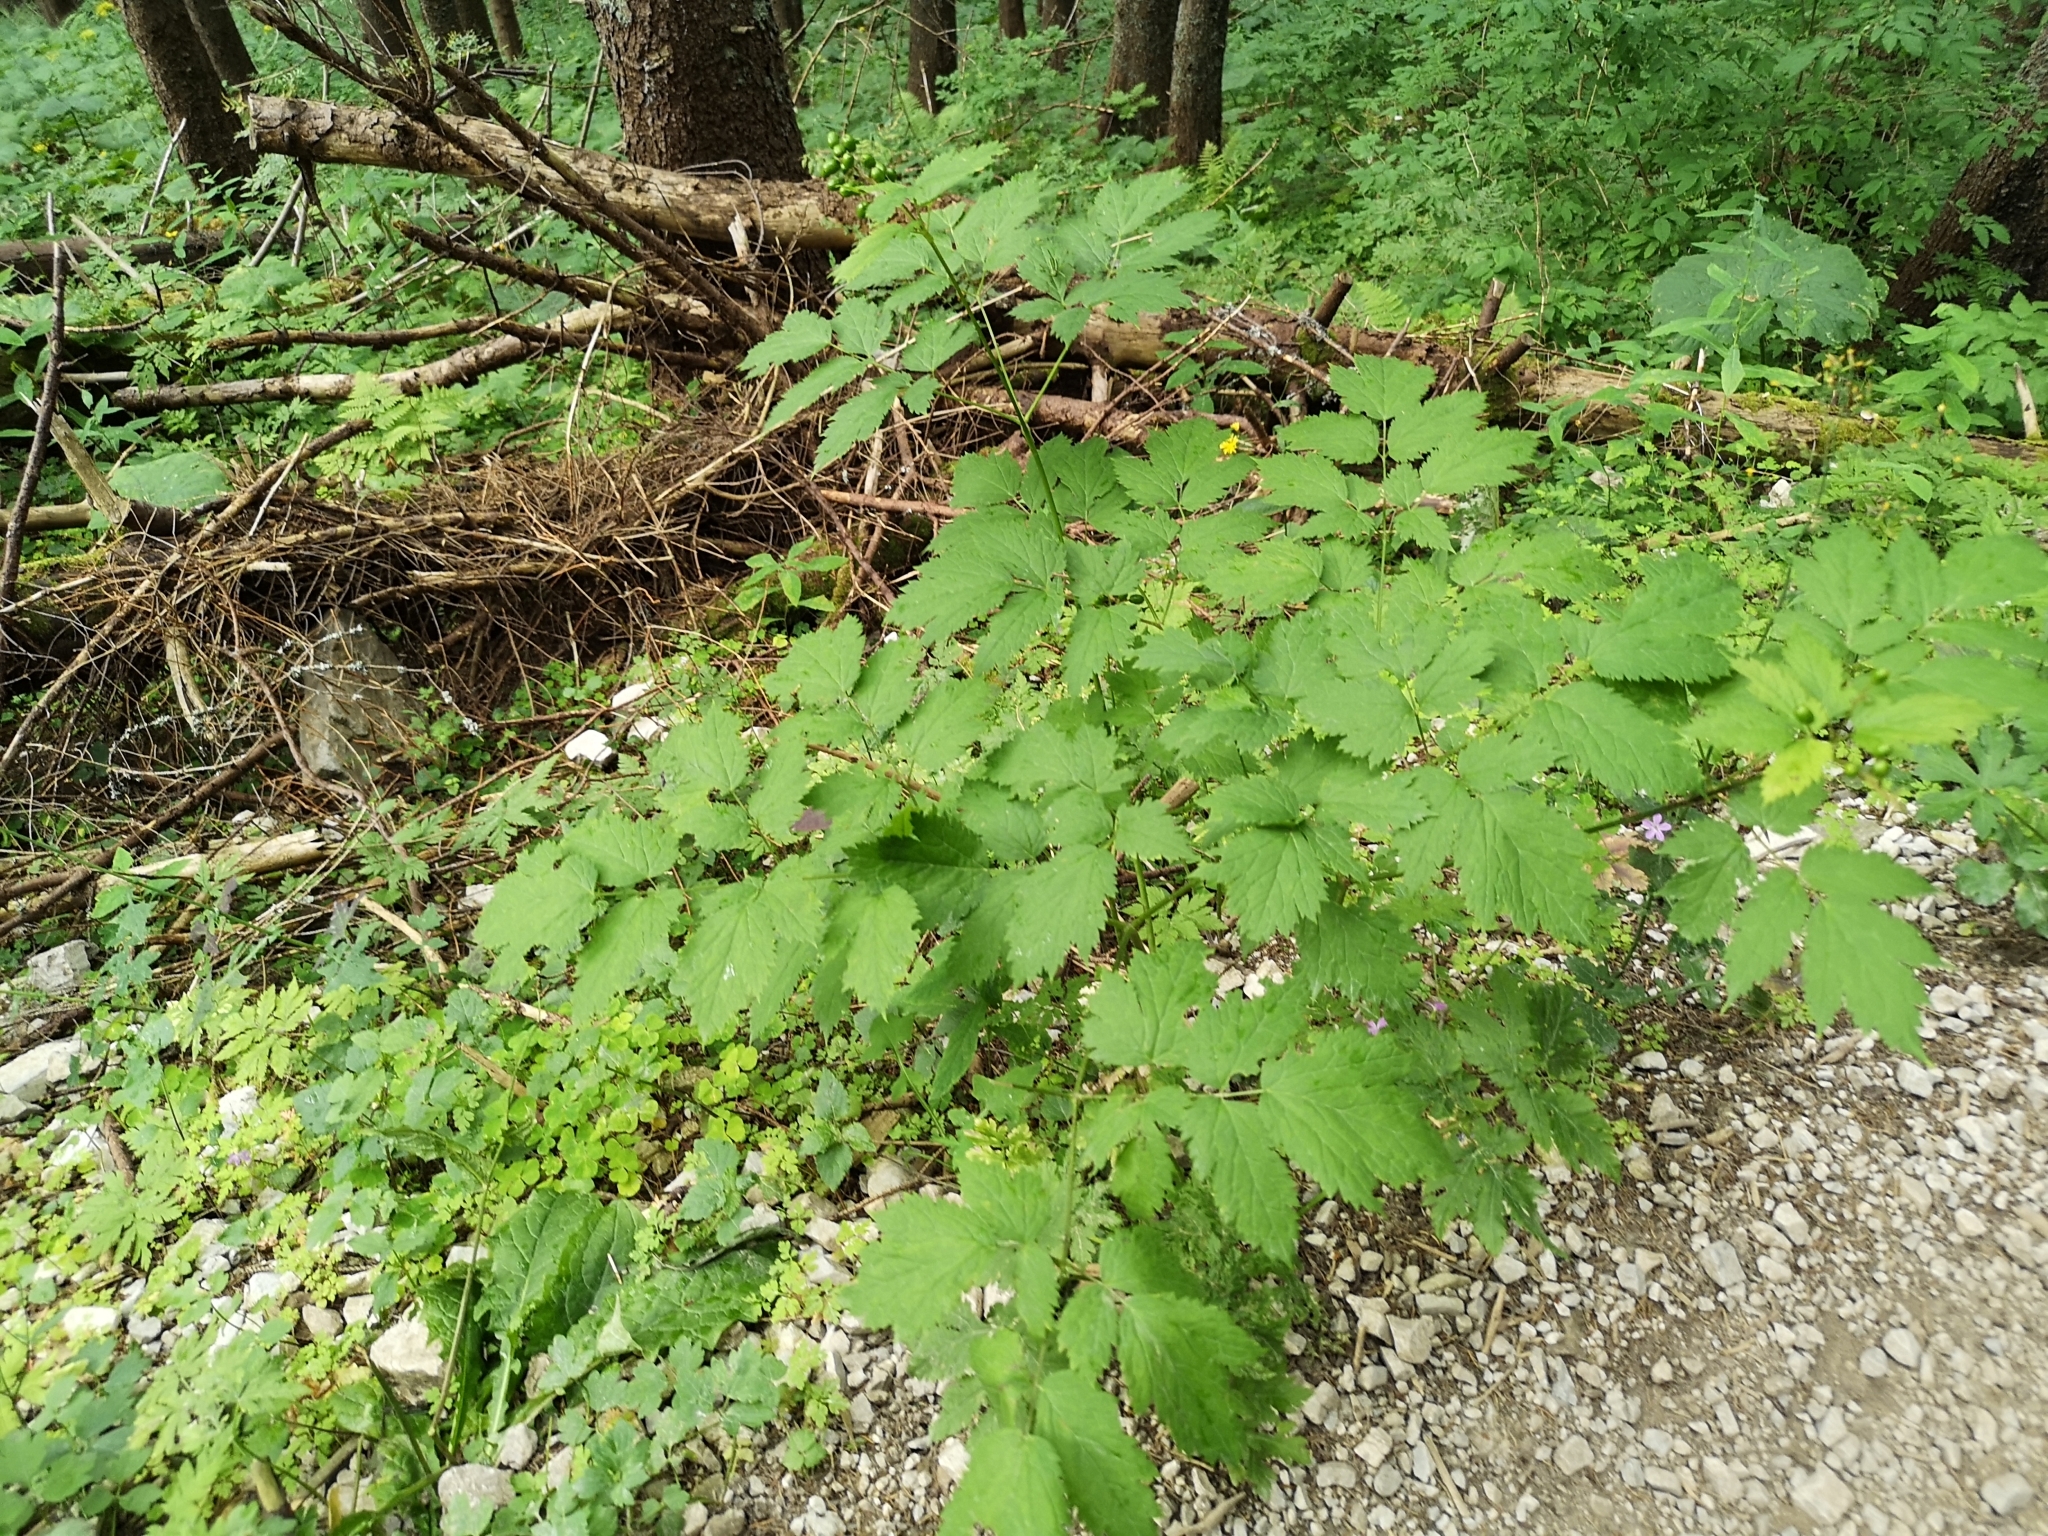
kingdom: Plantae
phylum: Tracheophyta
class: Magnoliopsida
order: Ranunculales
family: Ranunculaceae
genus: Actaea
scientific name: Actaea spicata
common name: Baneberry
